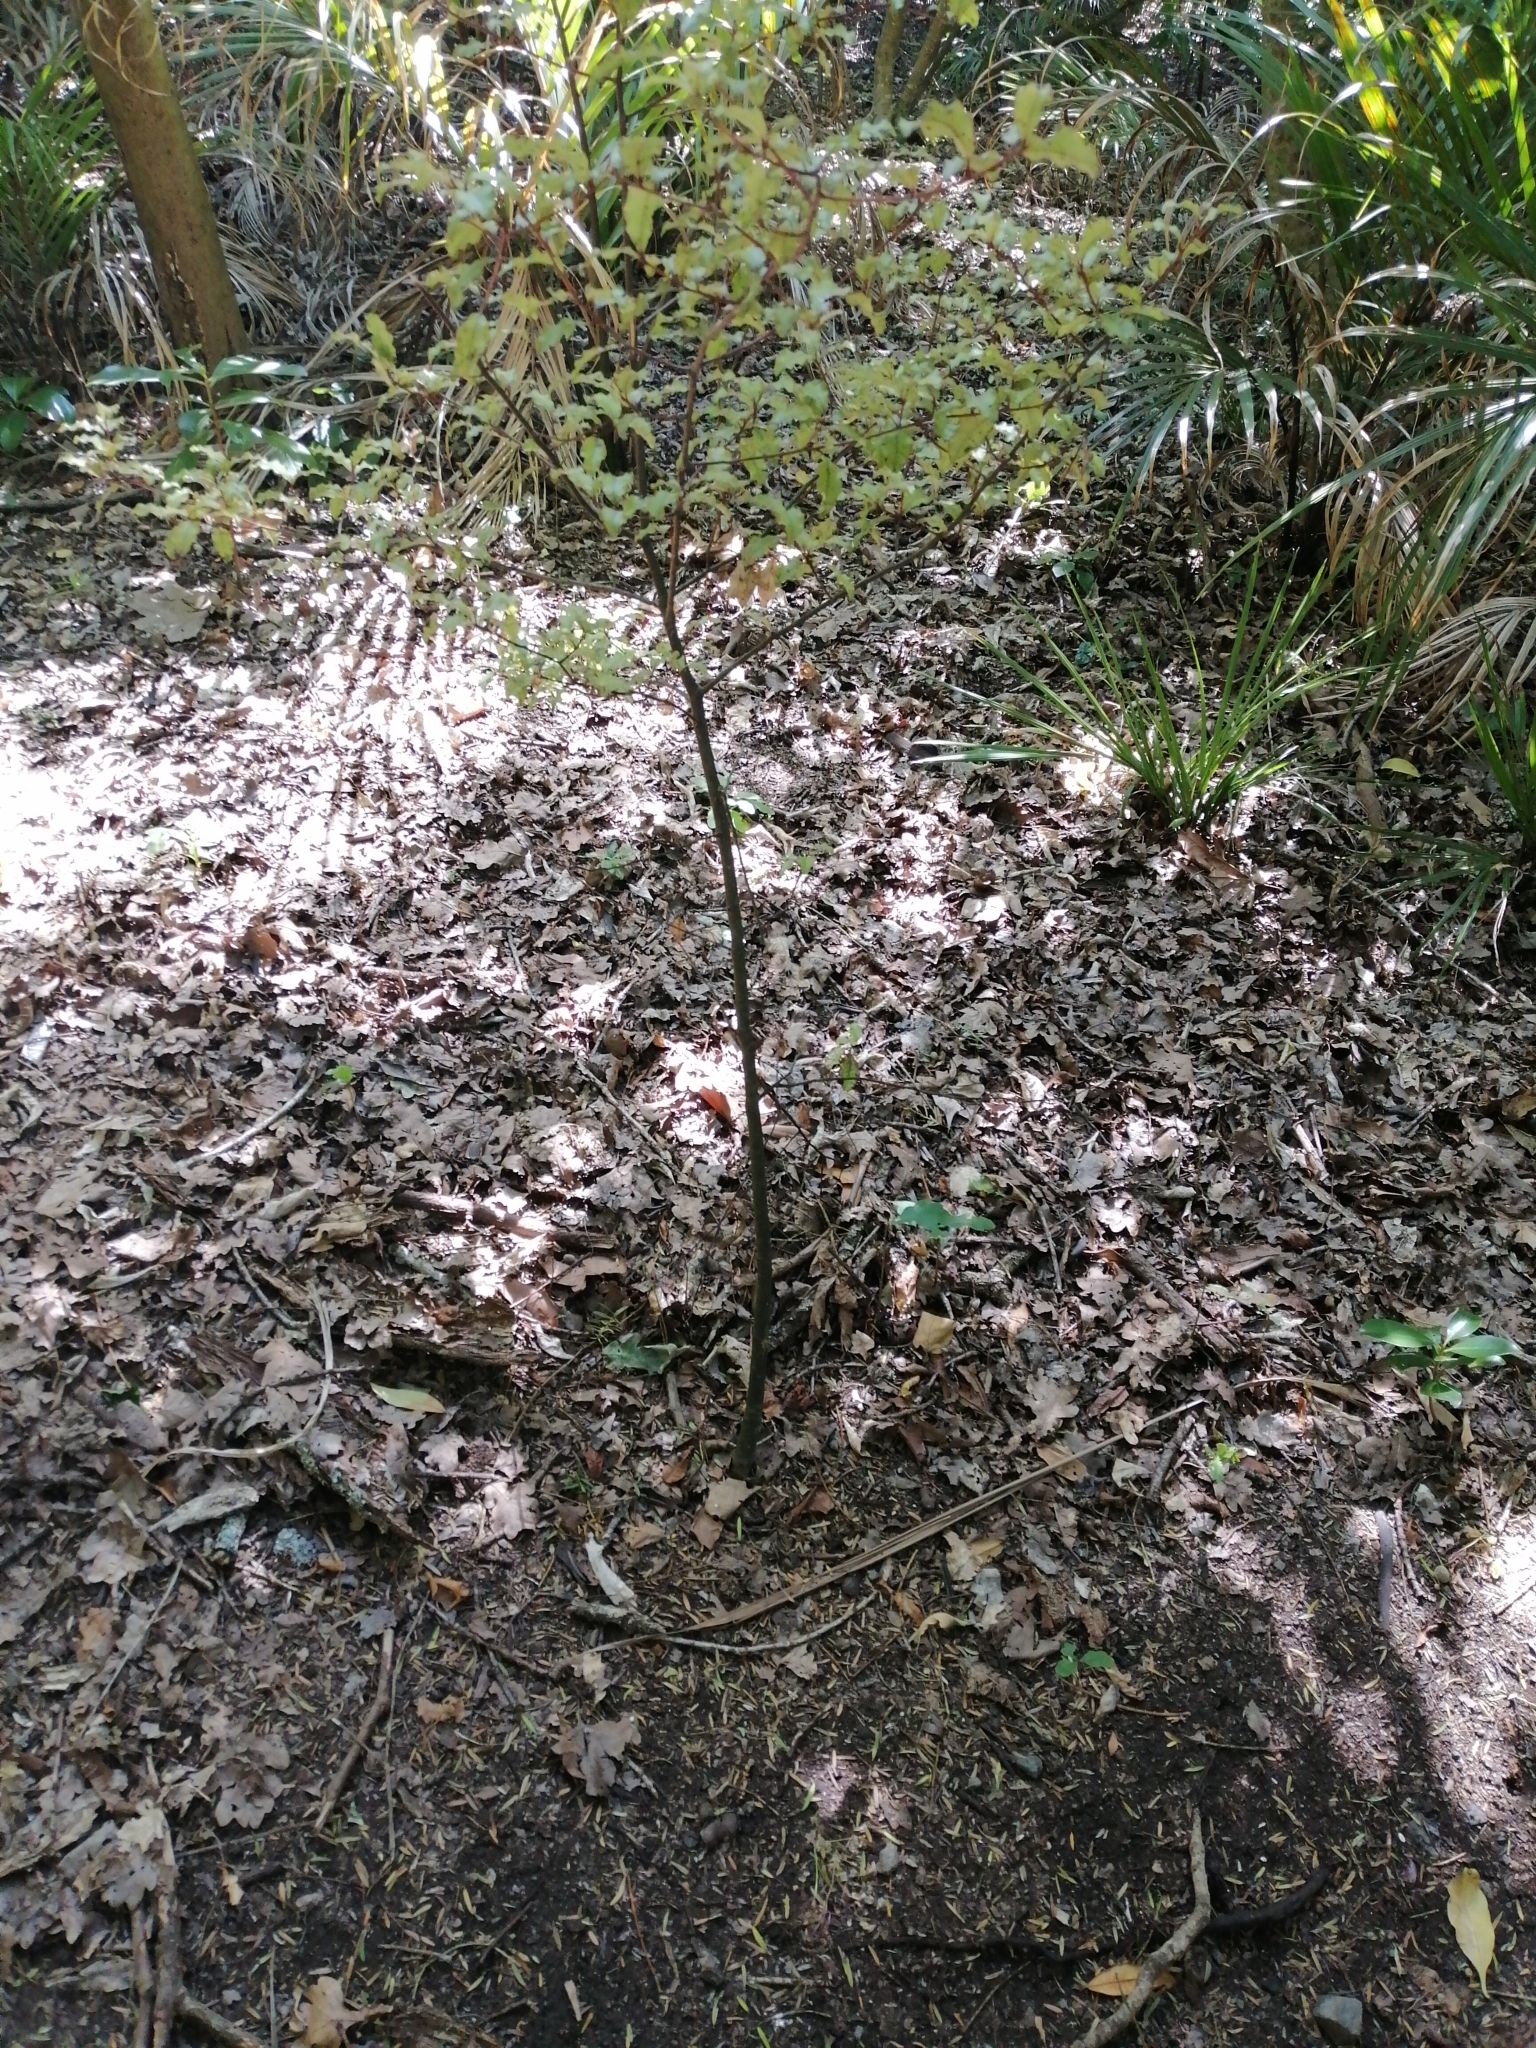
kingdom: Plantae
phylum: Tracheophyta
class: Magnoliopsida
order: Ericales
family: Primulaceae
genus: Myrsine
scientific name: Myrsine australis
